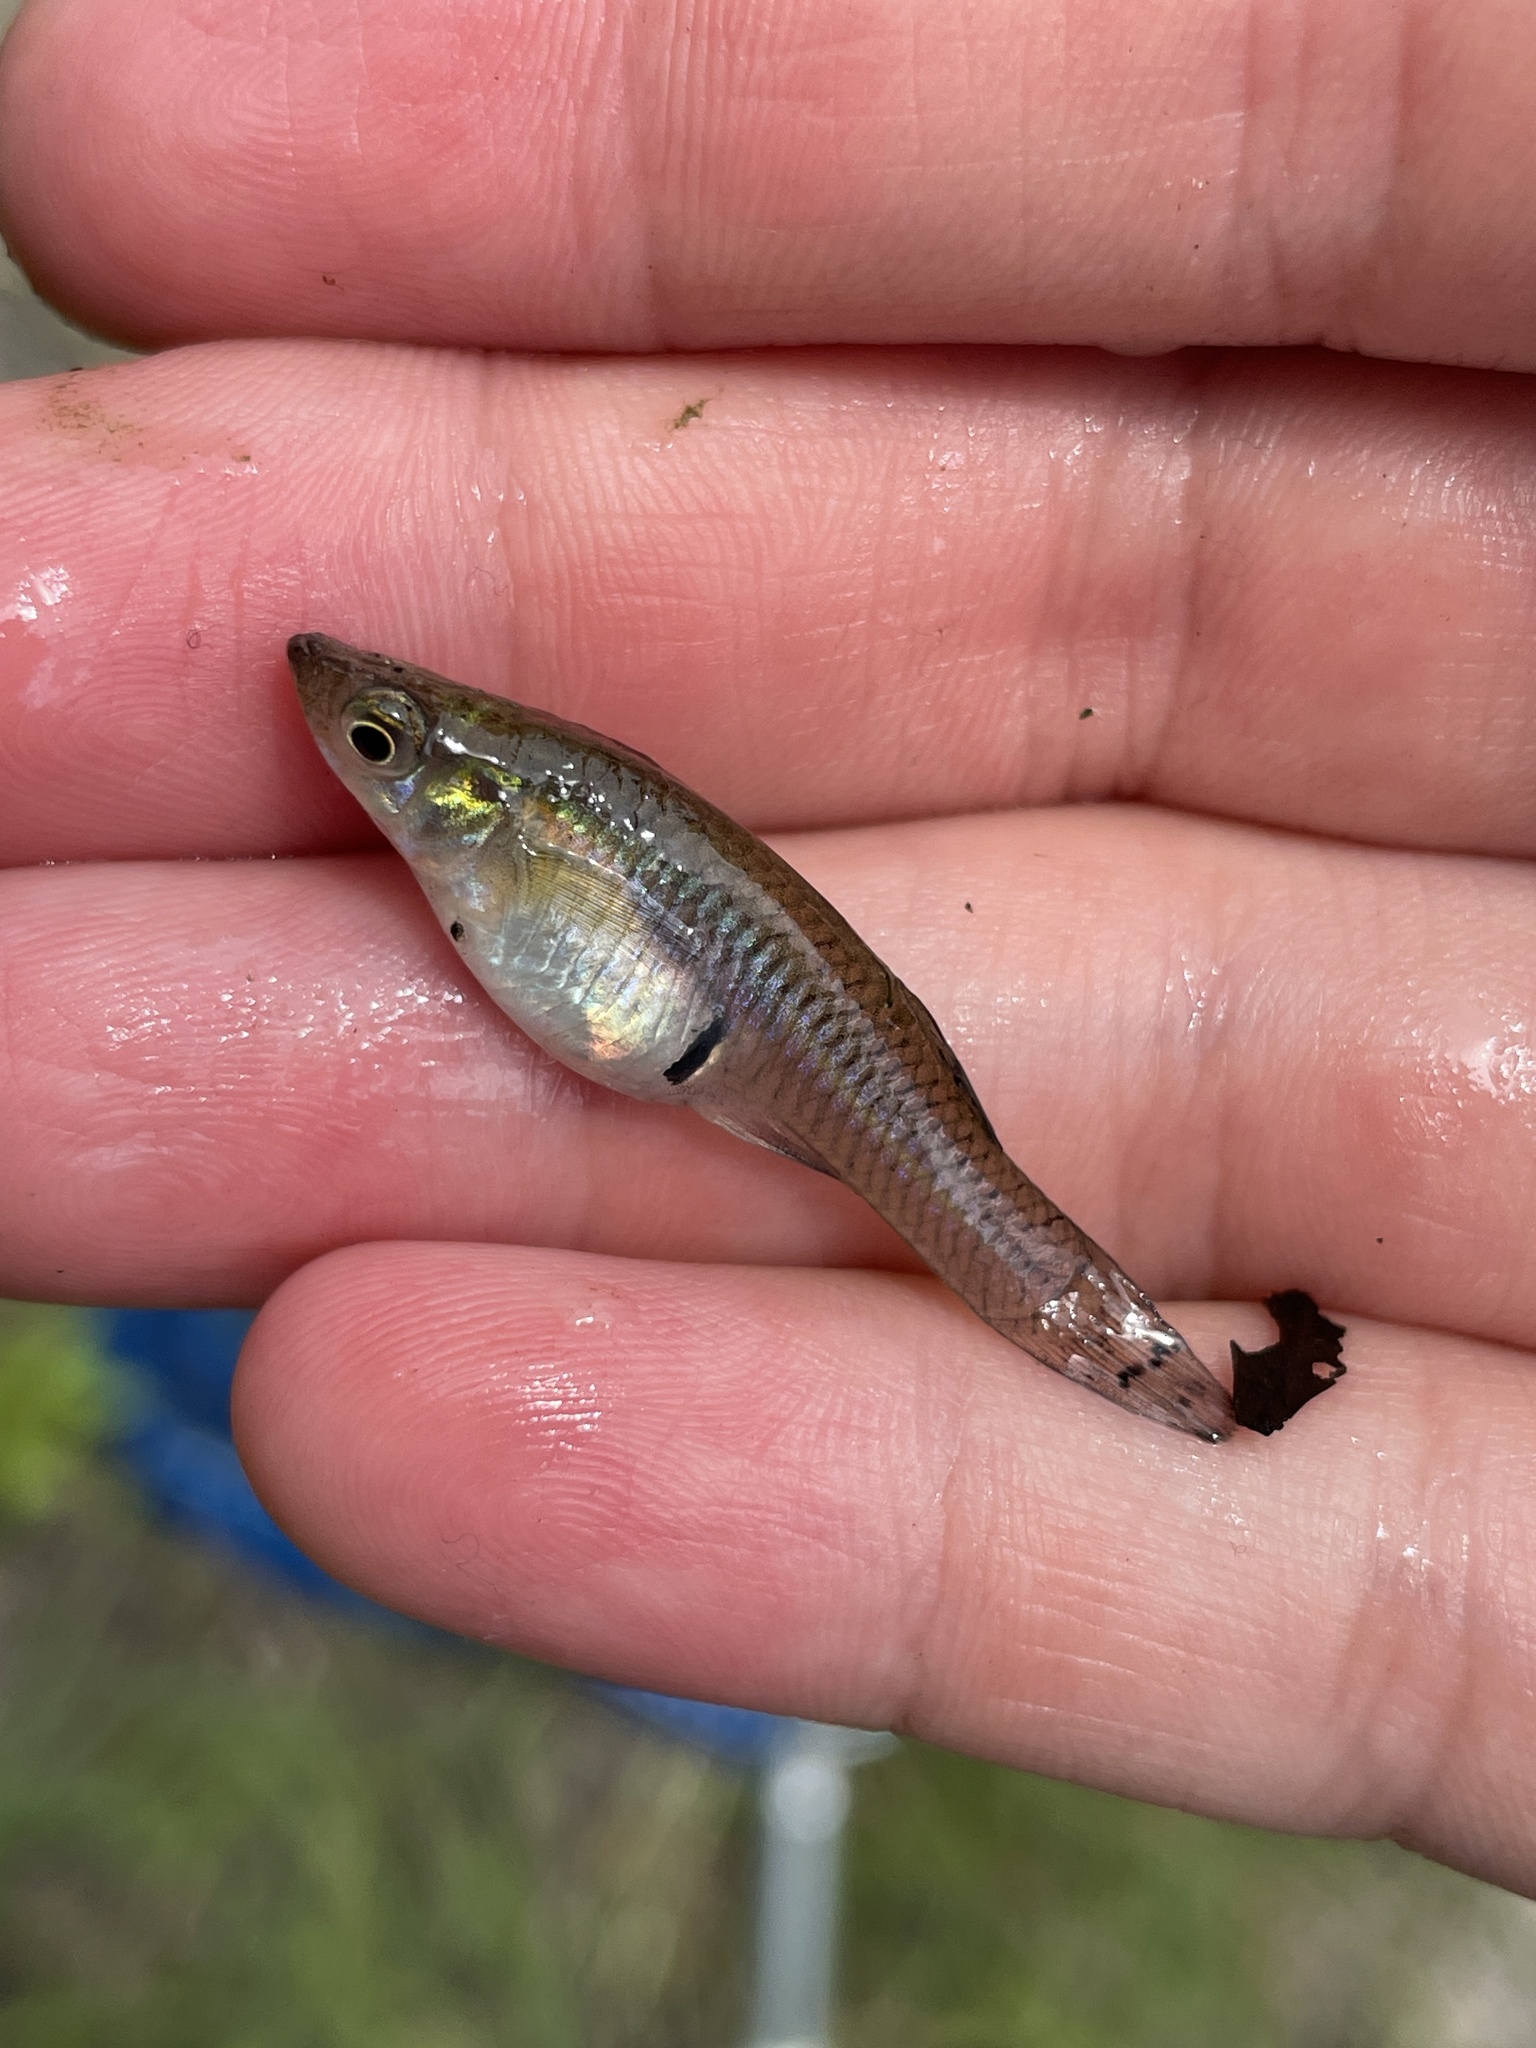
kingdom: Animalia
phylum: Chordata
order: Cyprinodontiformes
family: Poeciliidae
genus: Gambusia
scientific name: Gambusia holbrooki
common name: Eastern mosquitofish
